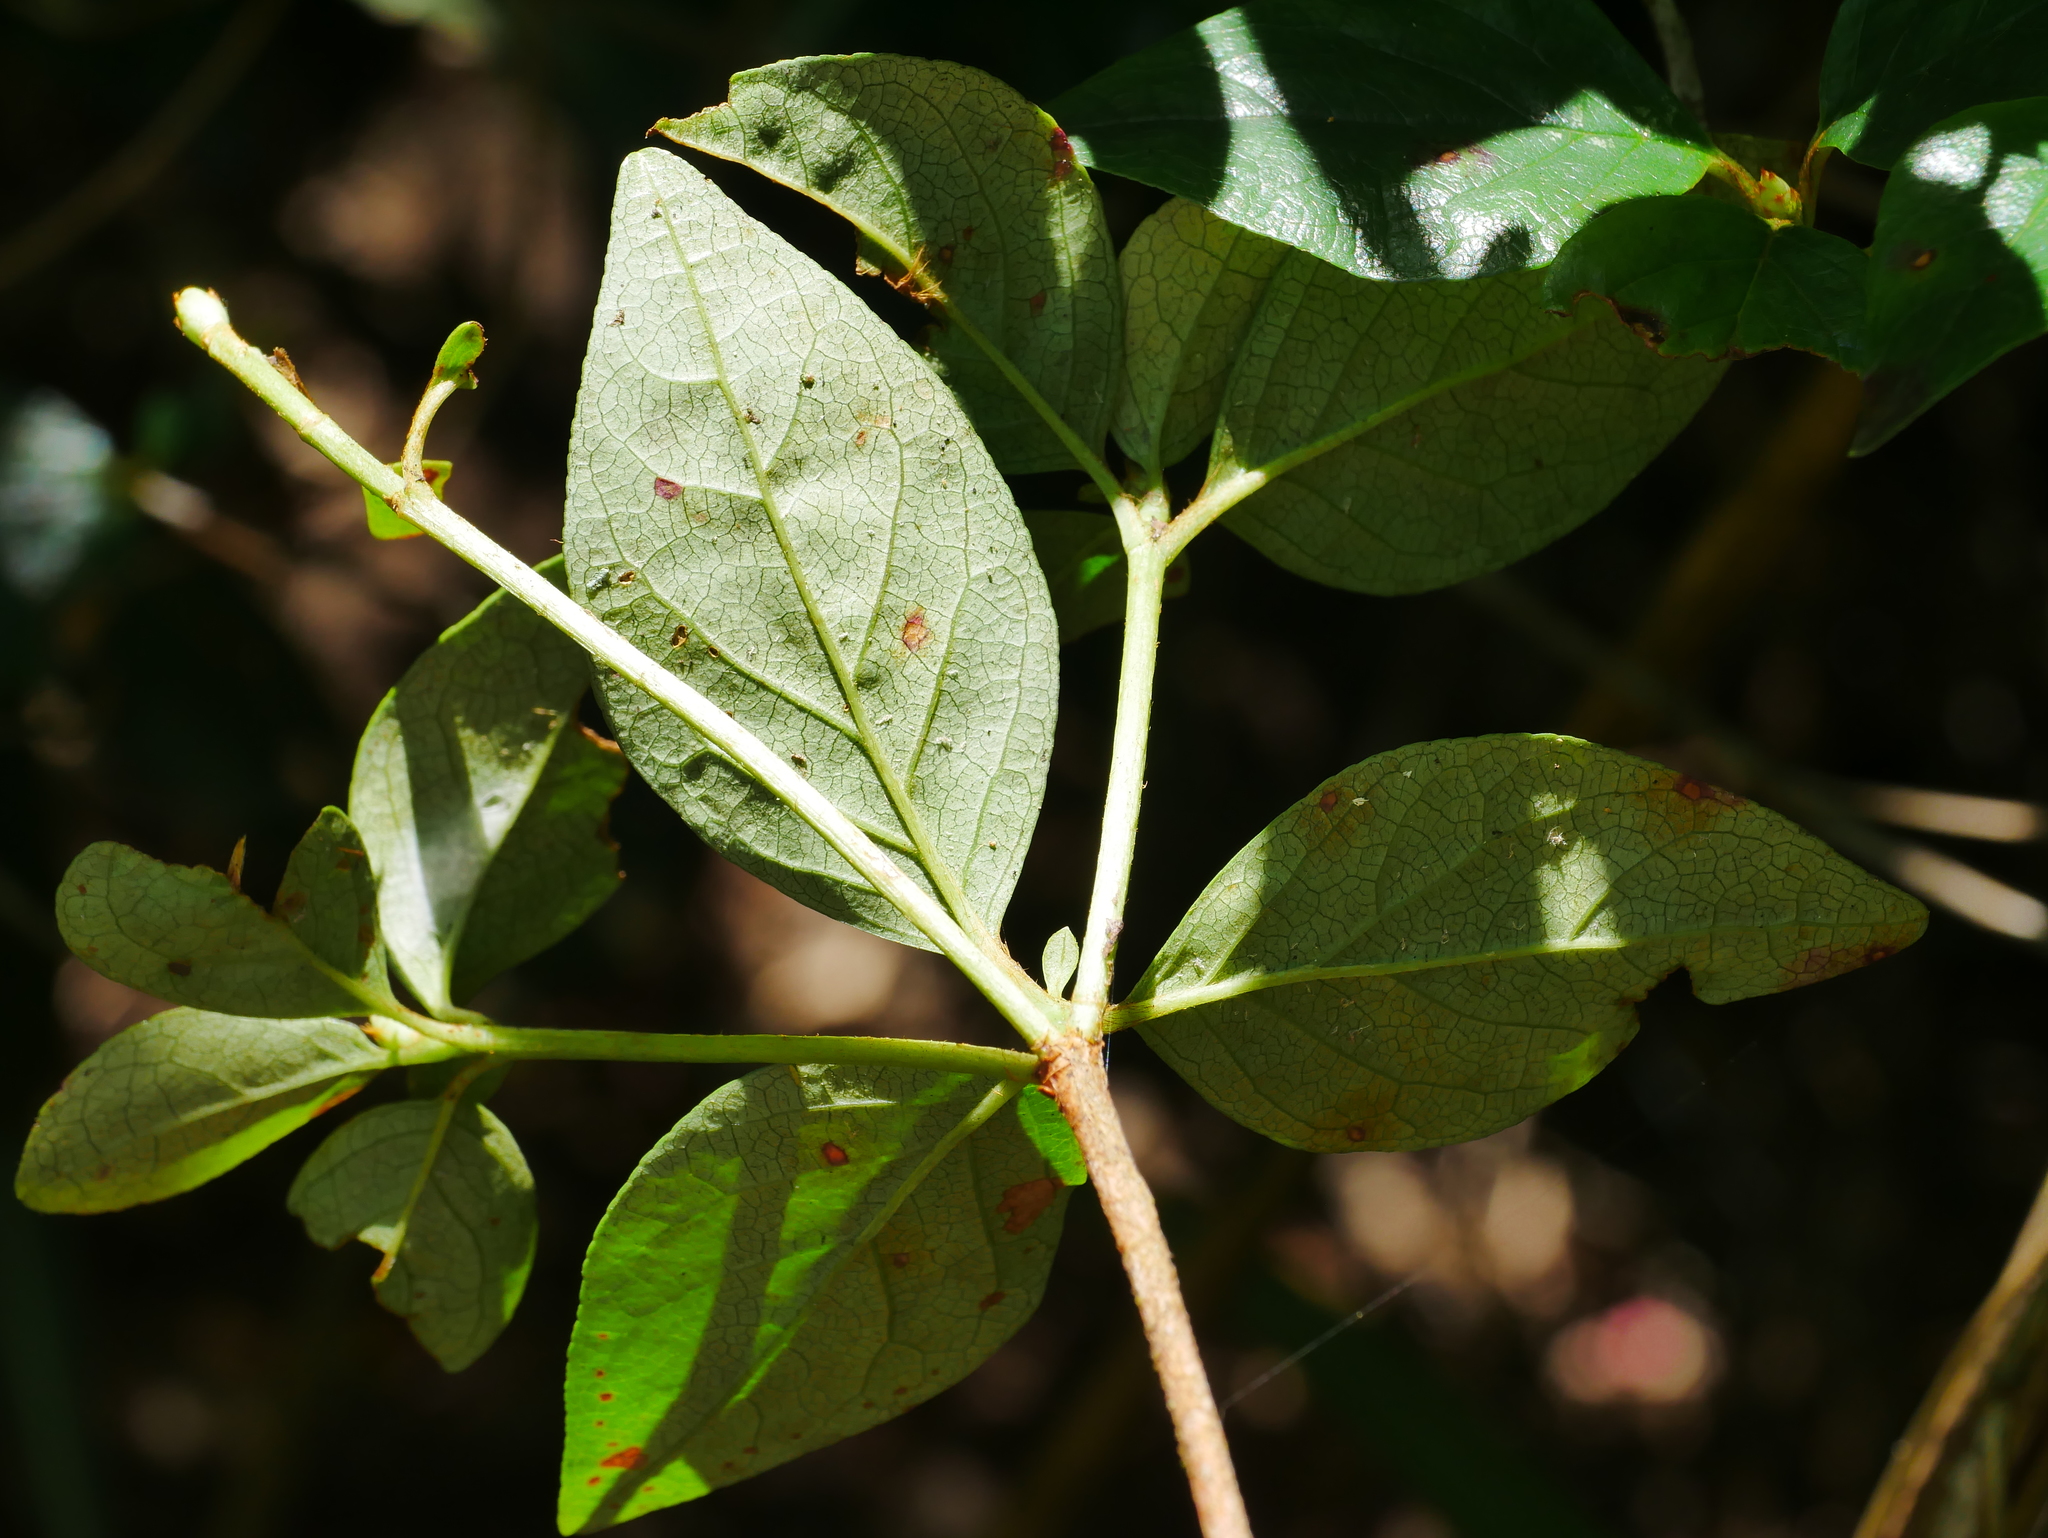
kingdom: Plantae
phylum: Tracheophyta
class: Magnoliopsida
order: Ericales
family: Ericaceae
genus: Rhododendron
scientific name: Rhododendron mariesii
